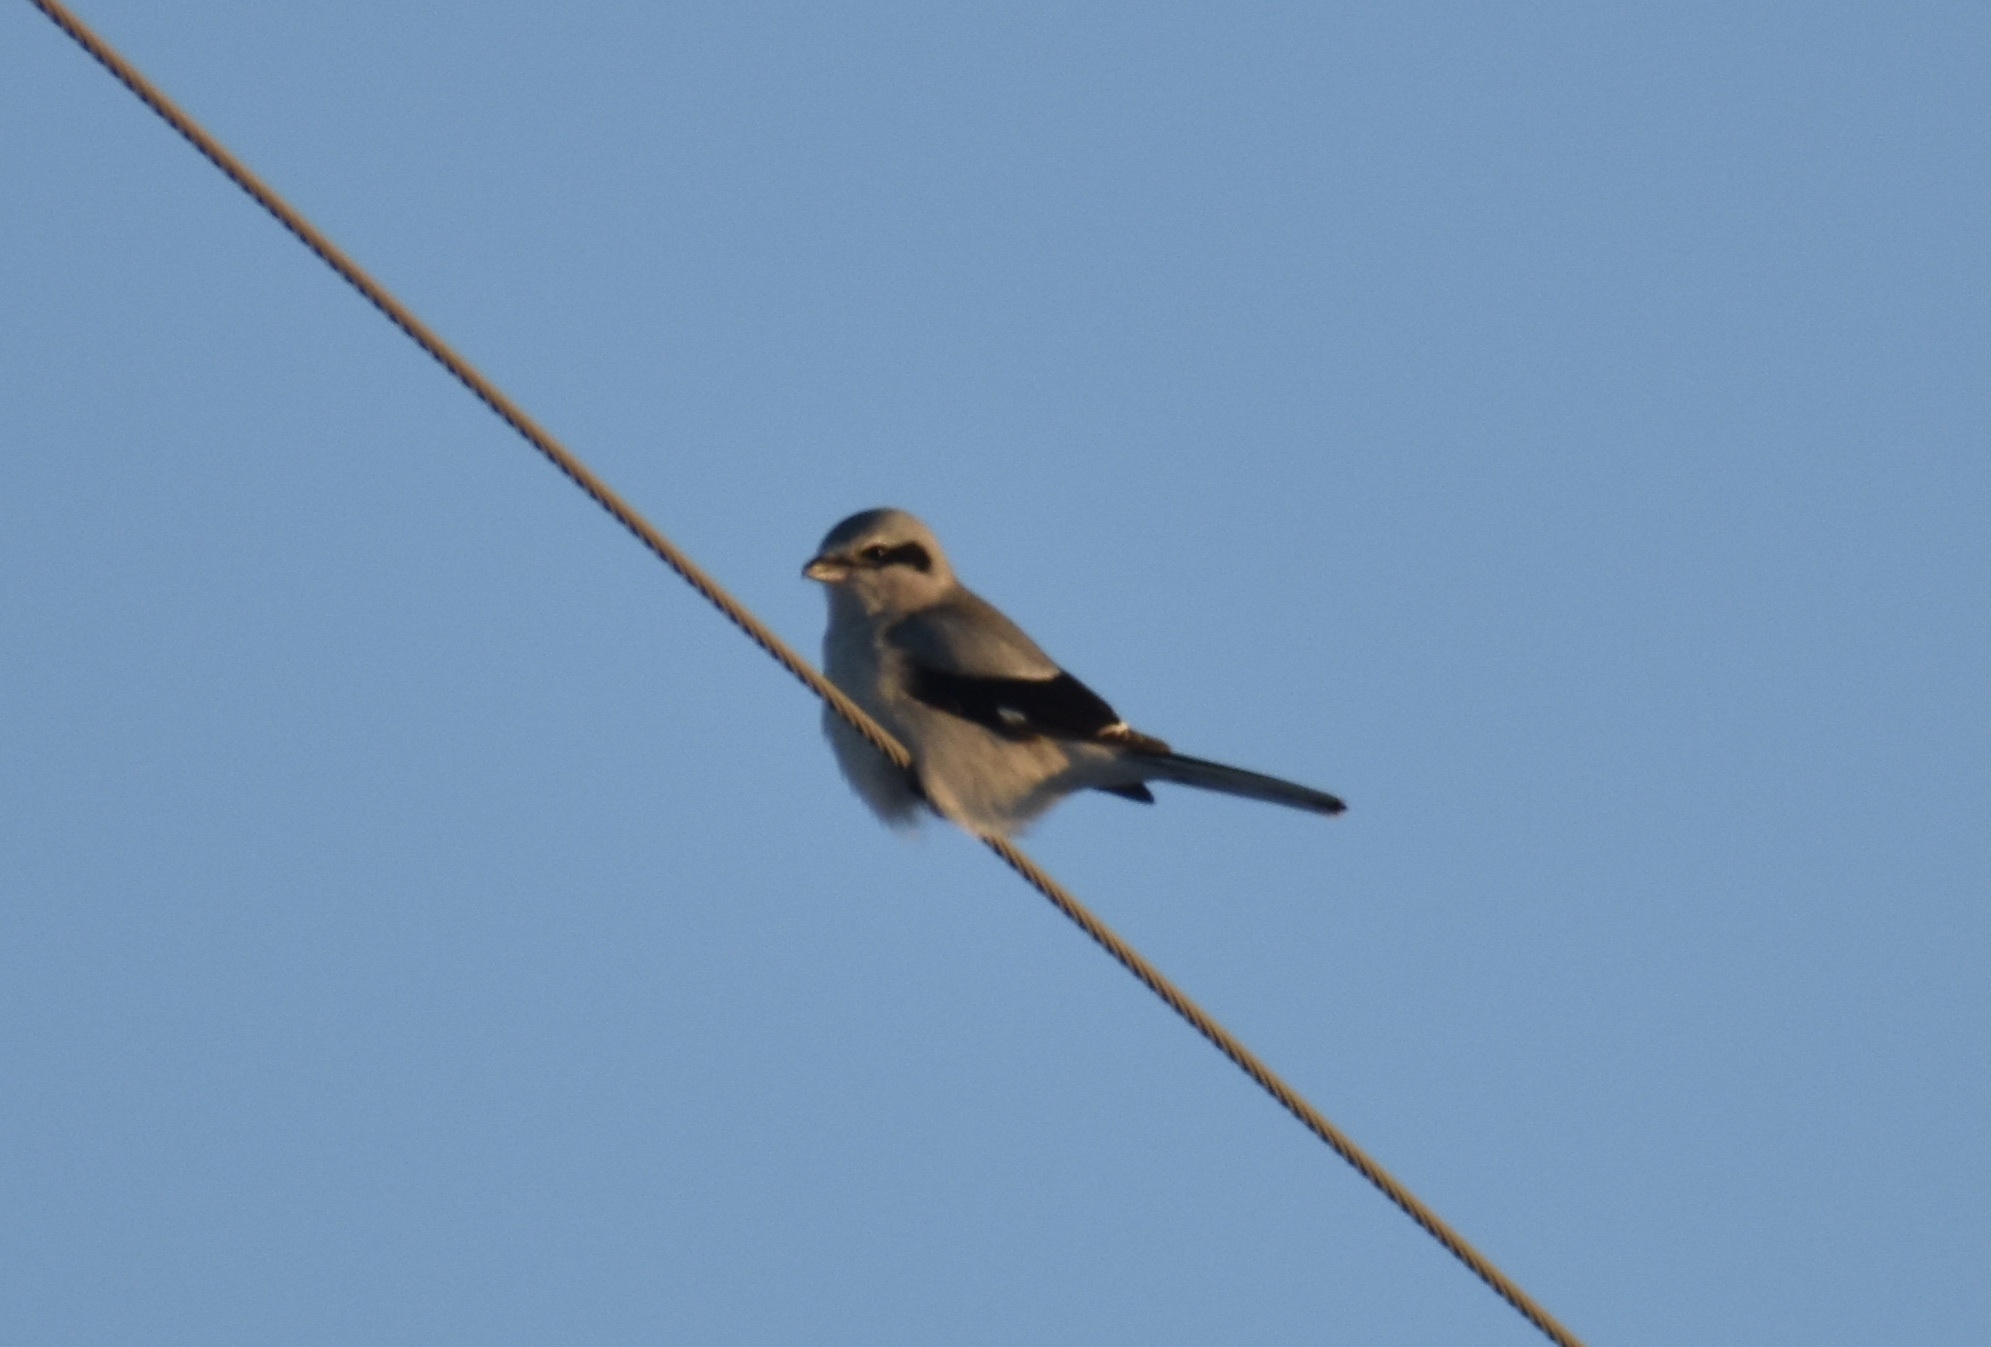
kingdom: Animalia
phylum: Chordata
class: Aves
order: Passeriformes
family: Laniidae
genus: Lanius
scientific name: Lanius borealis
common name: Northern shrike
